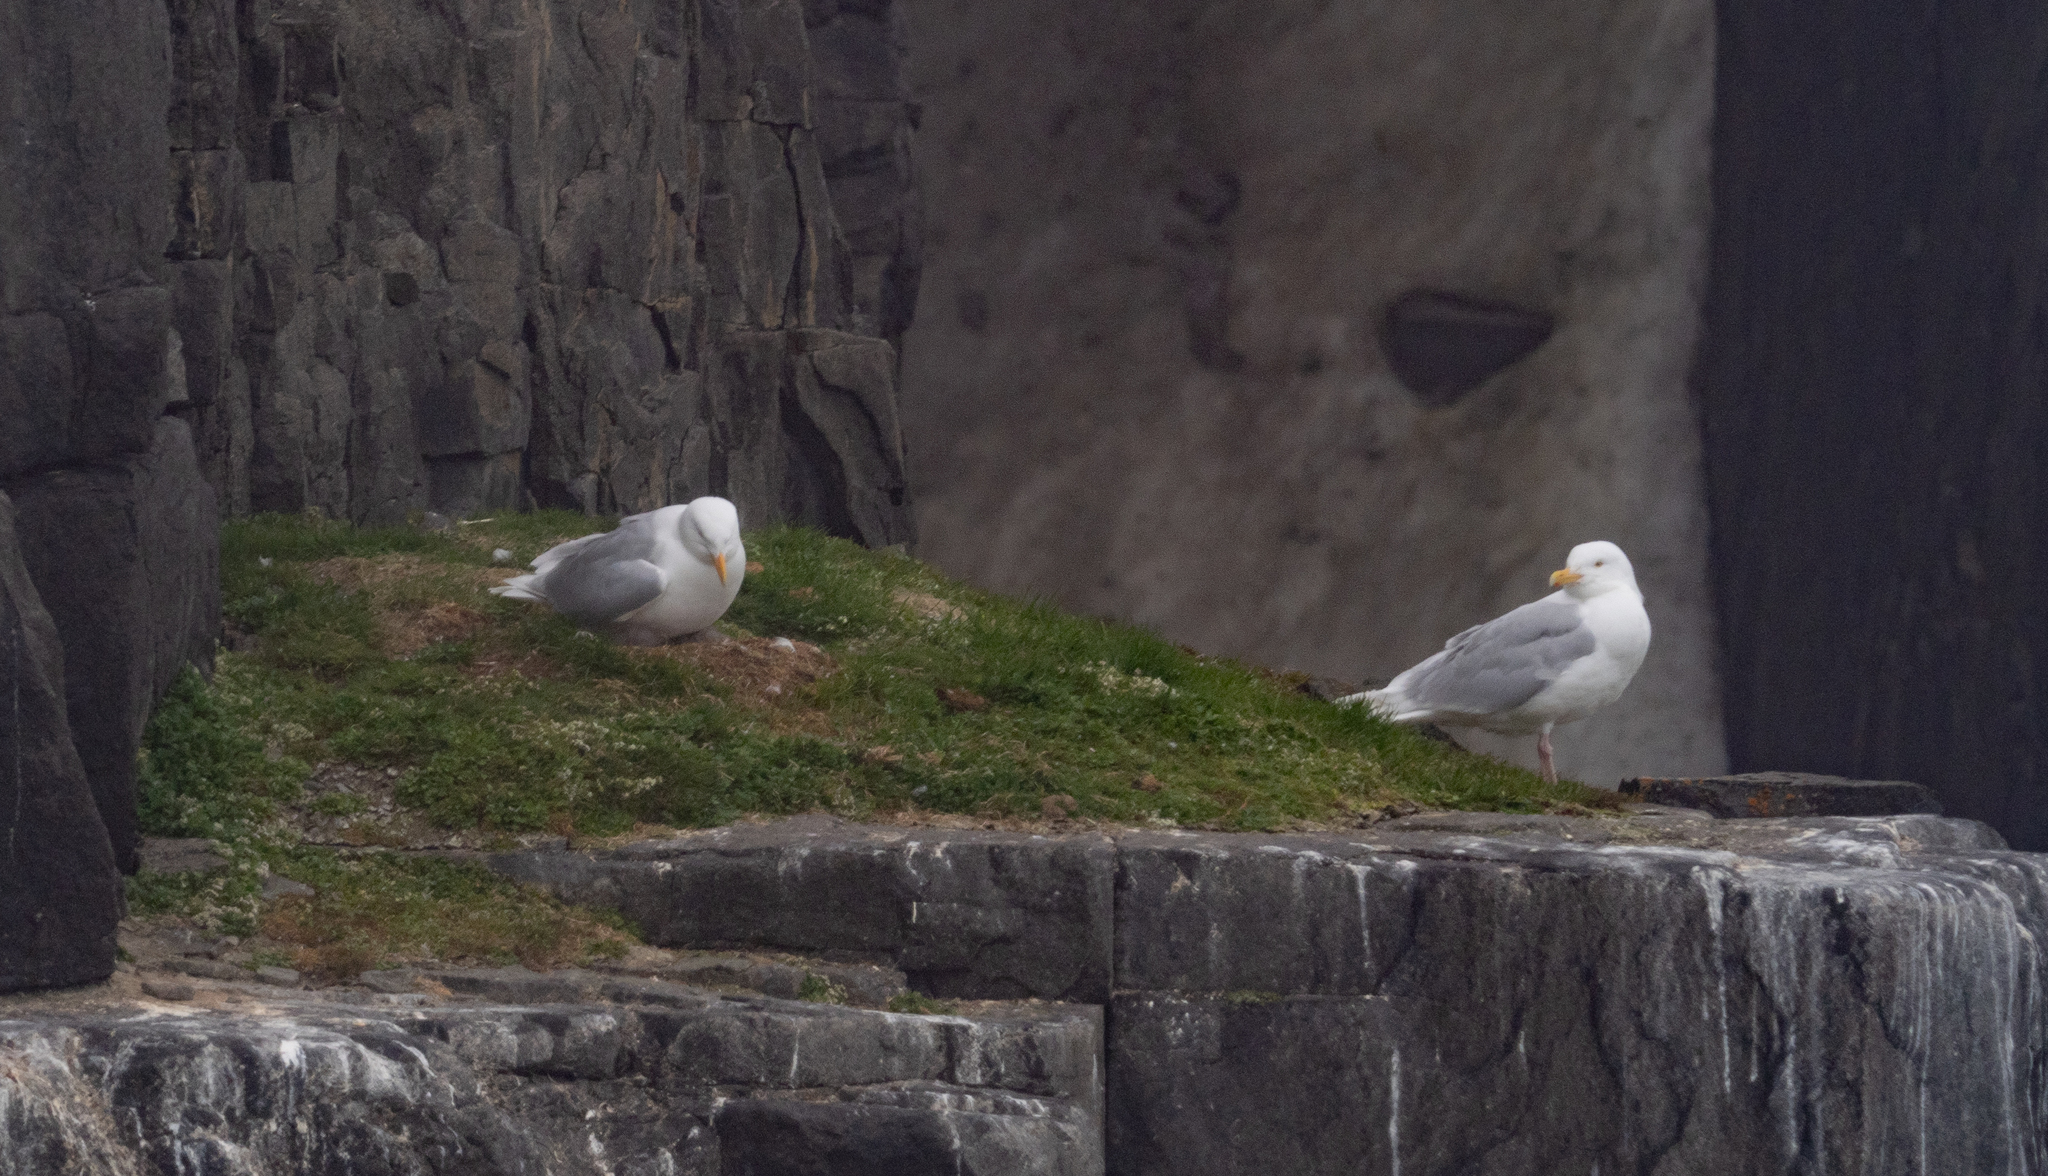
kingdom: Animalia
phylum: Chordata
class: Aves
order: Charadriiformes
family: Laridae
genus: Larus
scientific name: Larus hyperboreus
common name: Glaucous gull
